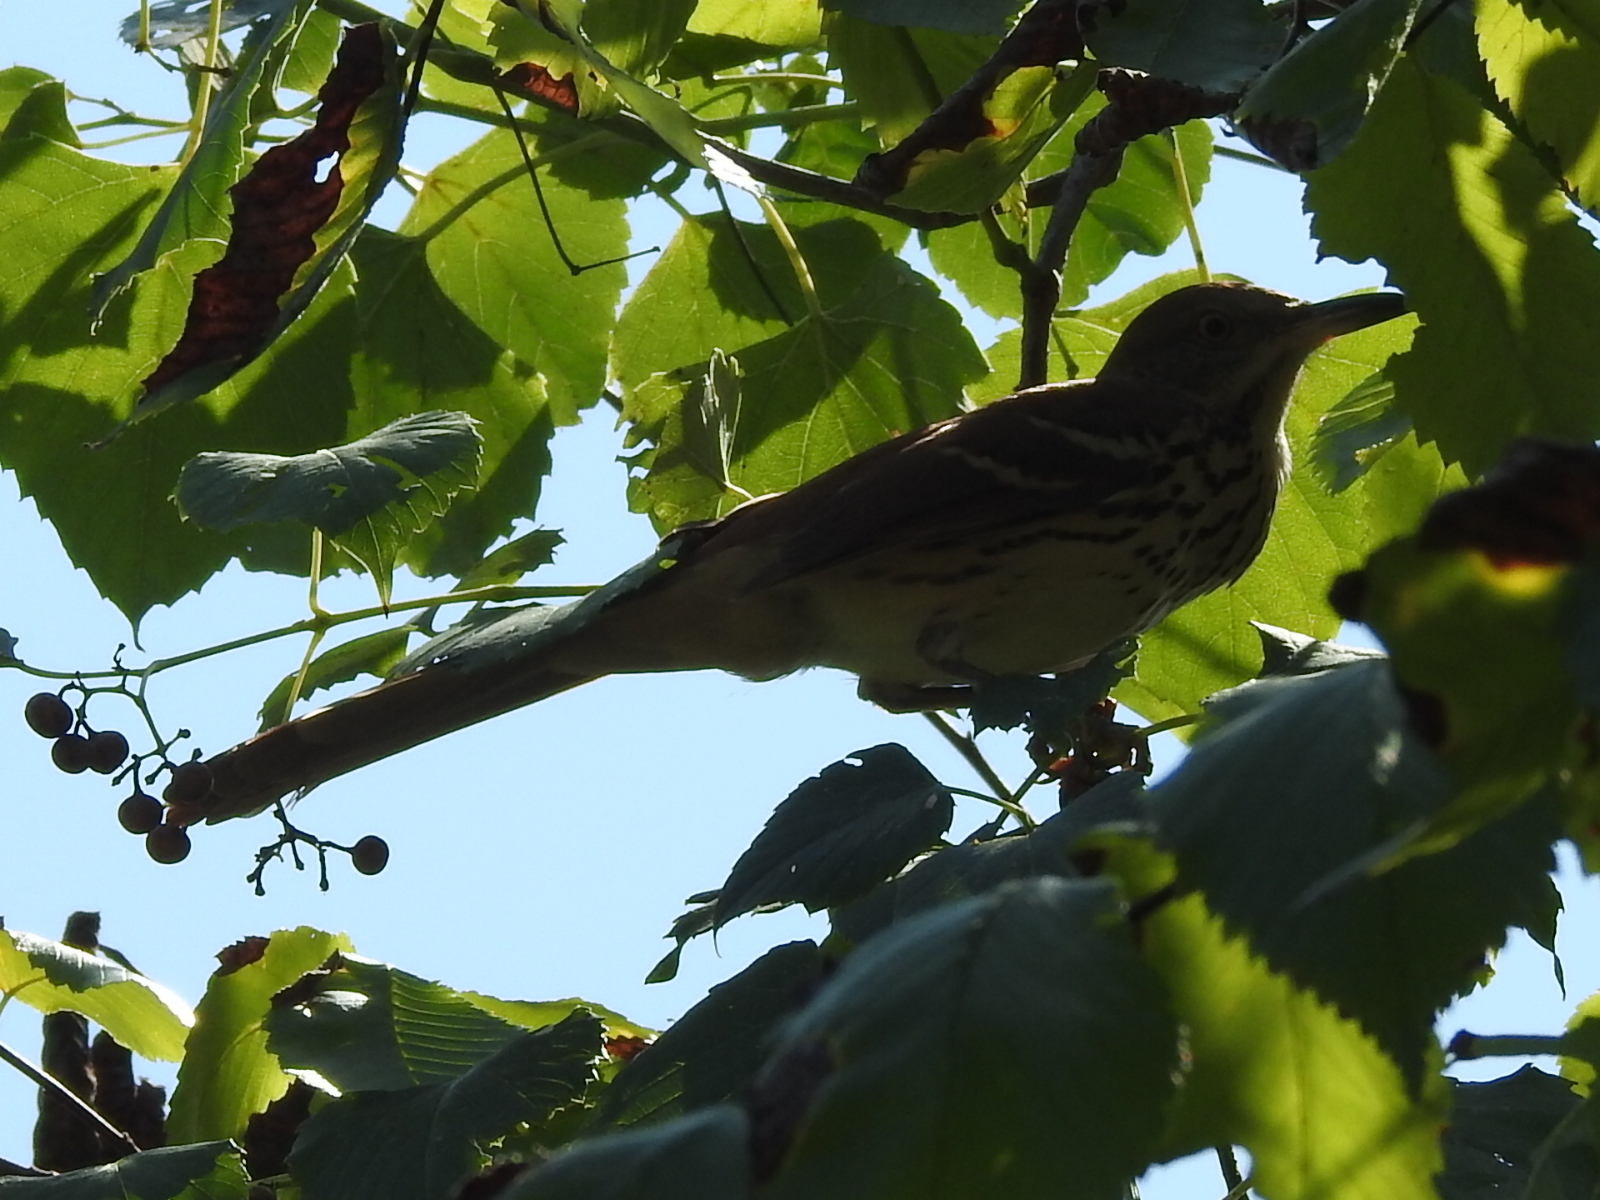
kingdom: Animalia
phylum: Chordata
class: Aves
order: Passeriformes
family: Mimidae
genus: Toxostoma
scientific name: Toxostoma rufum
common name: Brown thrasher
